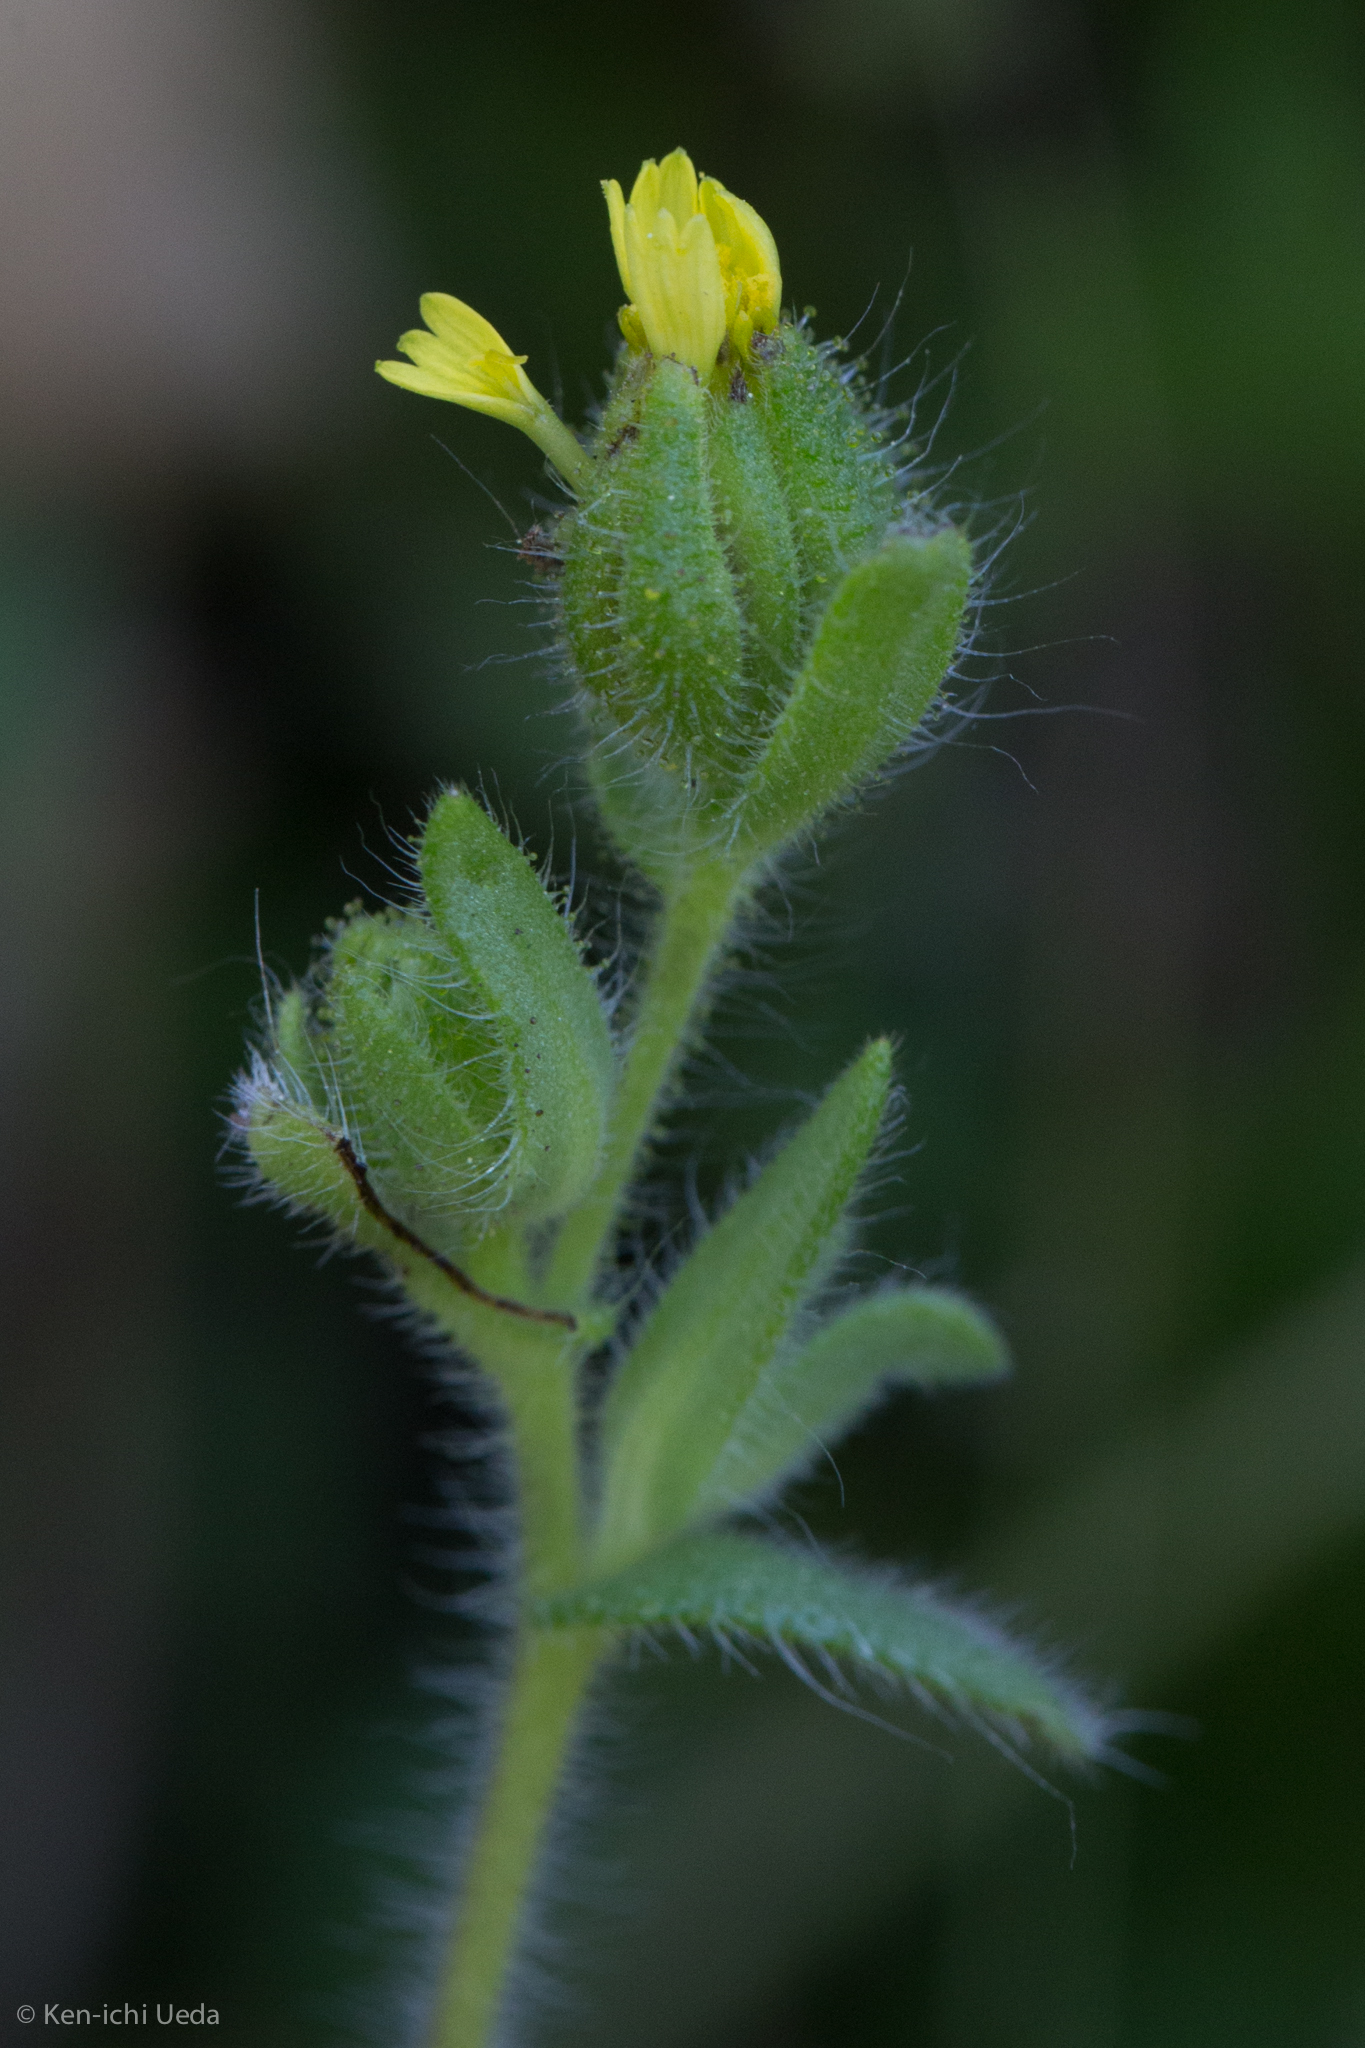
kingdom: Plantae
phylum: Tracheophyta
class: Magnoliopsida
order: Asterales
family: Asteraceae
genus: Madia
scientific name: Madia gracilis
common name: Grassy tarweed
